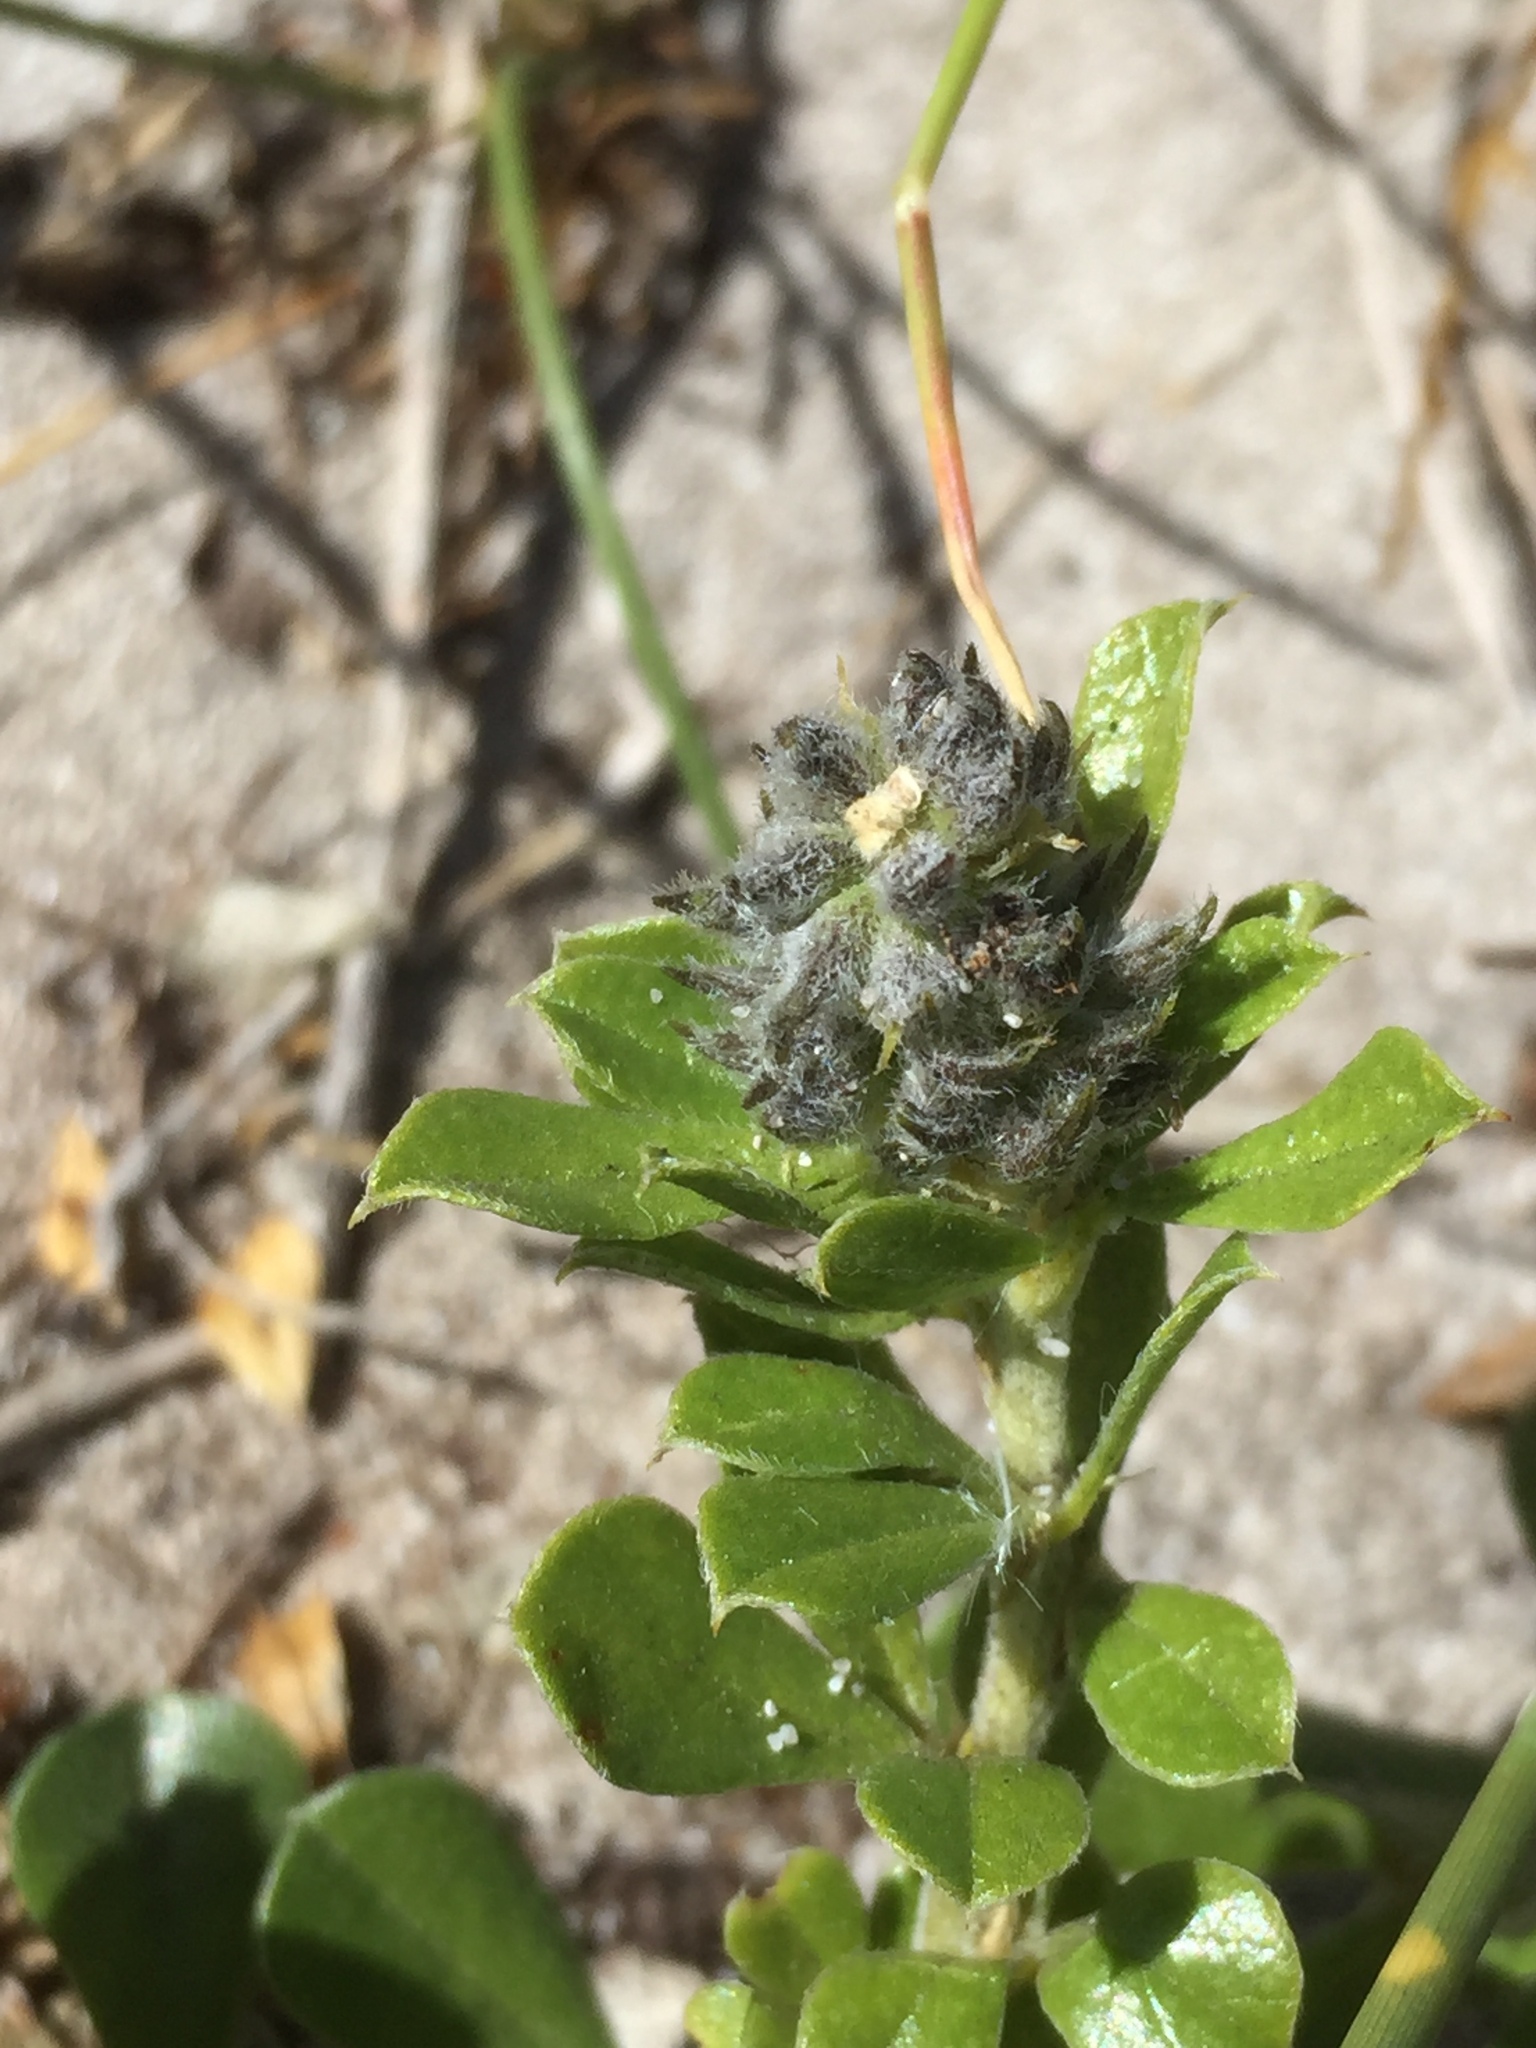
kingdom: Plantae
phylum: Tracheophyta
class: Magnoliopsida
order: Fabales
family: Fabaceae
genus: Psoralea
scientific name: Psoralea bracteolata
